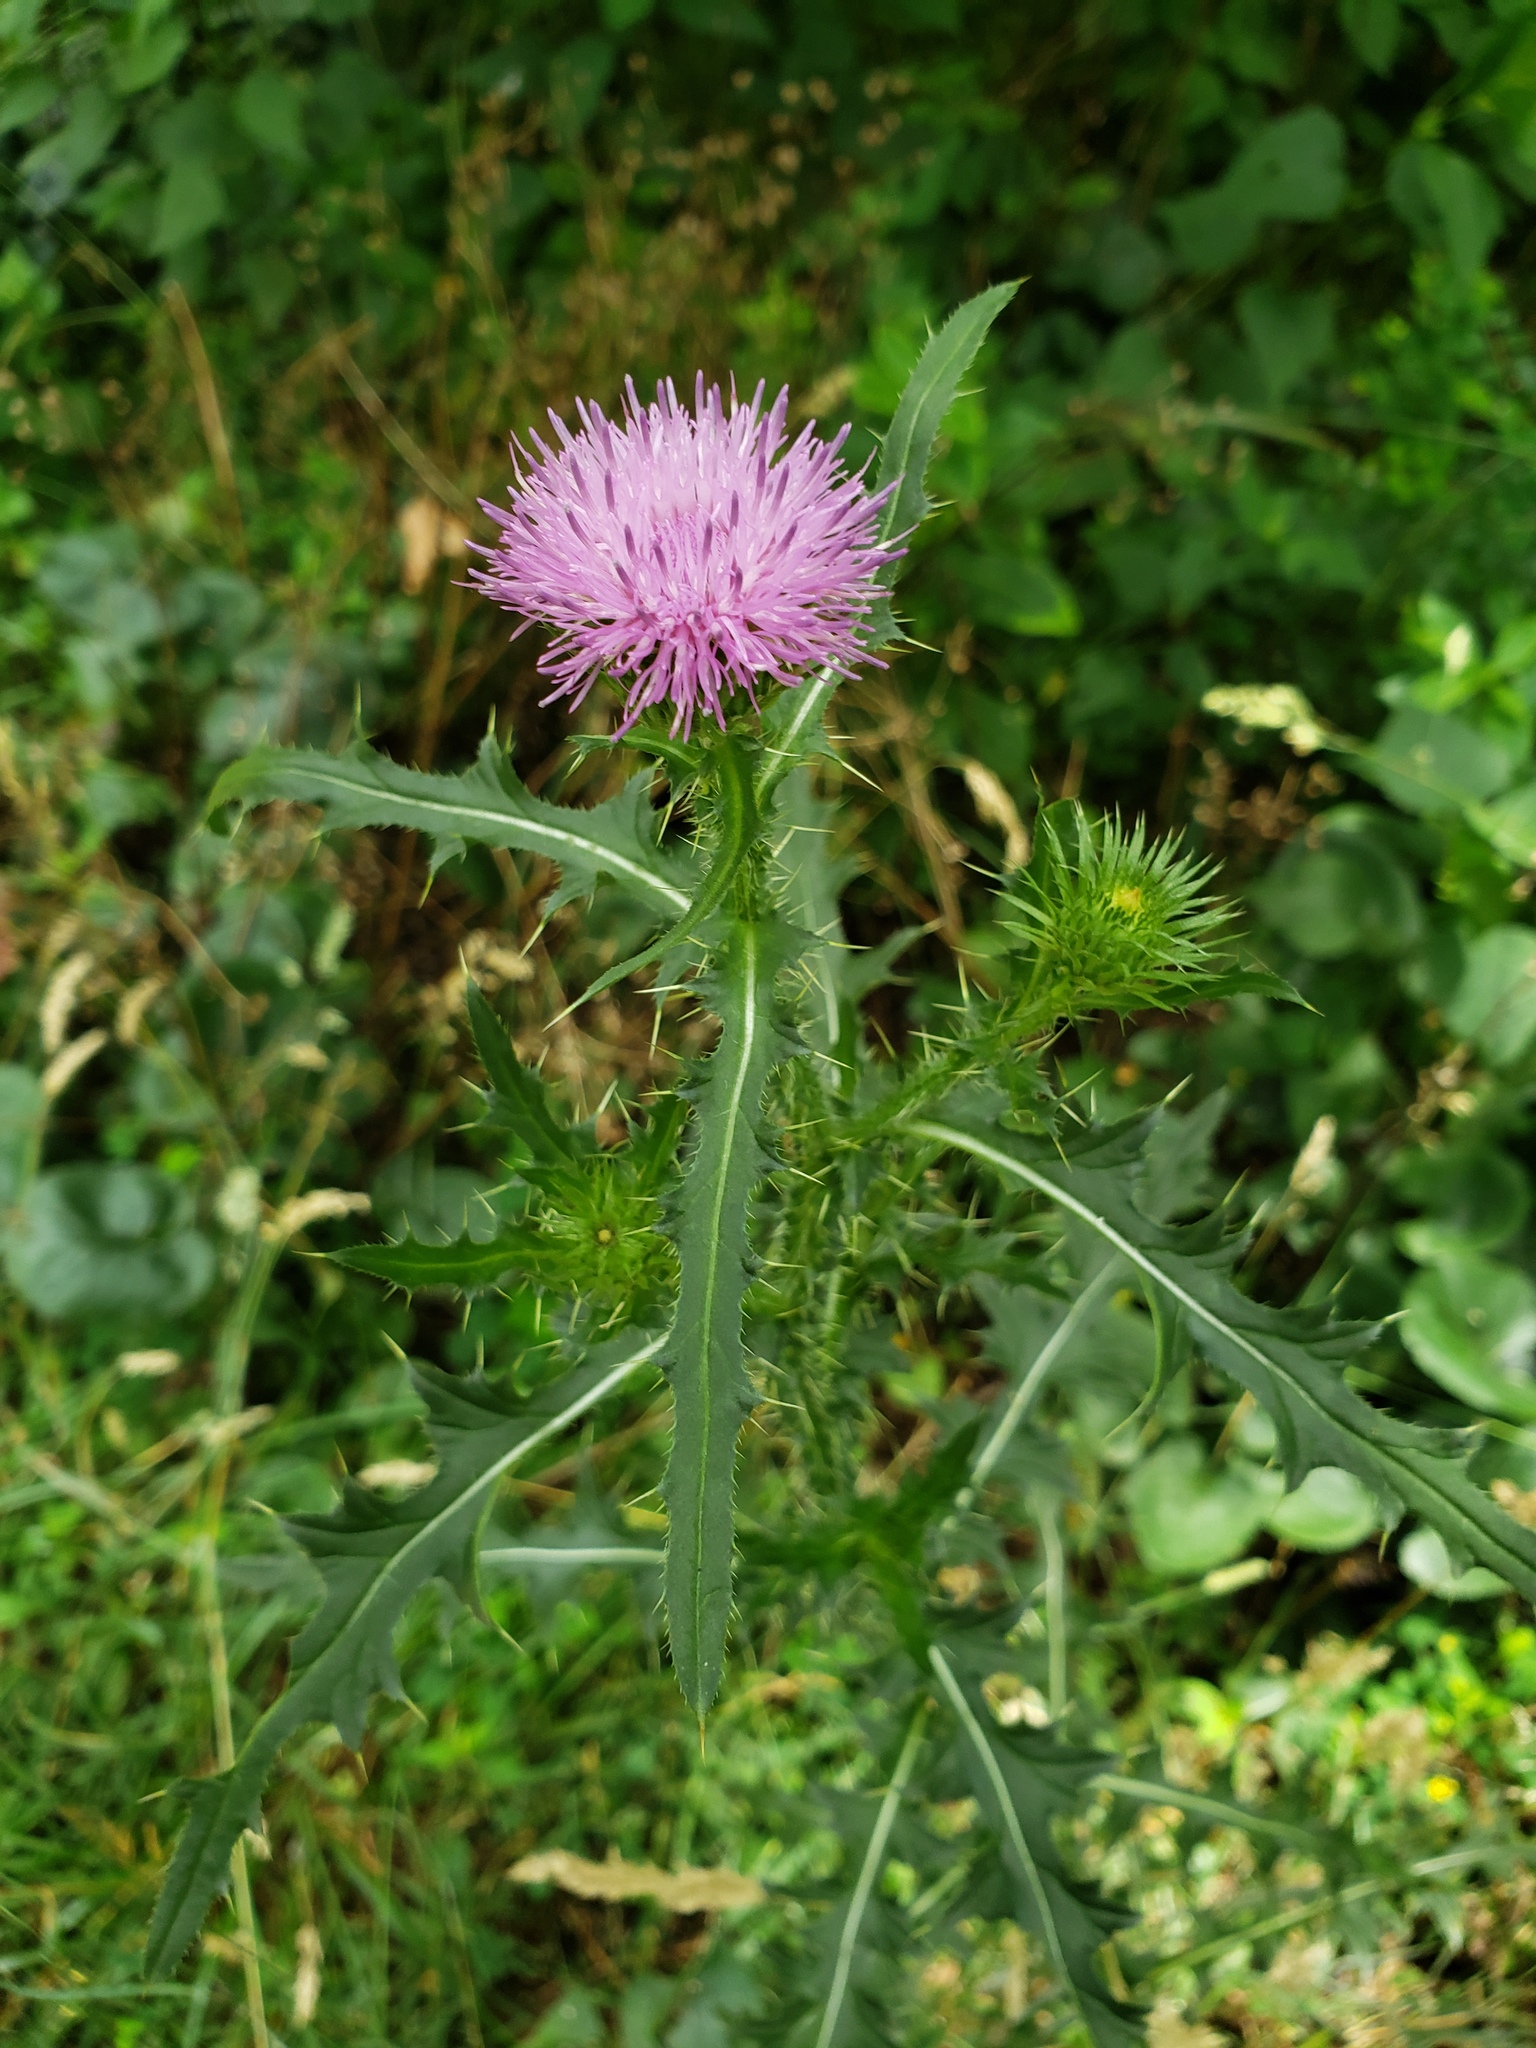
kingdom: Plantae
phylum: Tracheophyta
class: Magnoliopsida
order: Asterales
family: Asteraceae
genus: Carduus
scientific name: Carduus acanthoides
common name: Plumeless thistle
